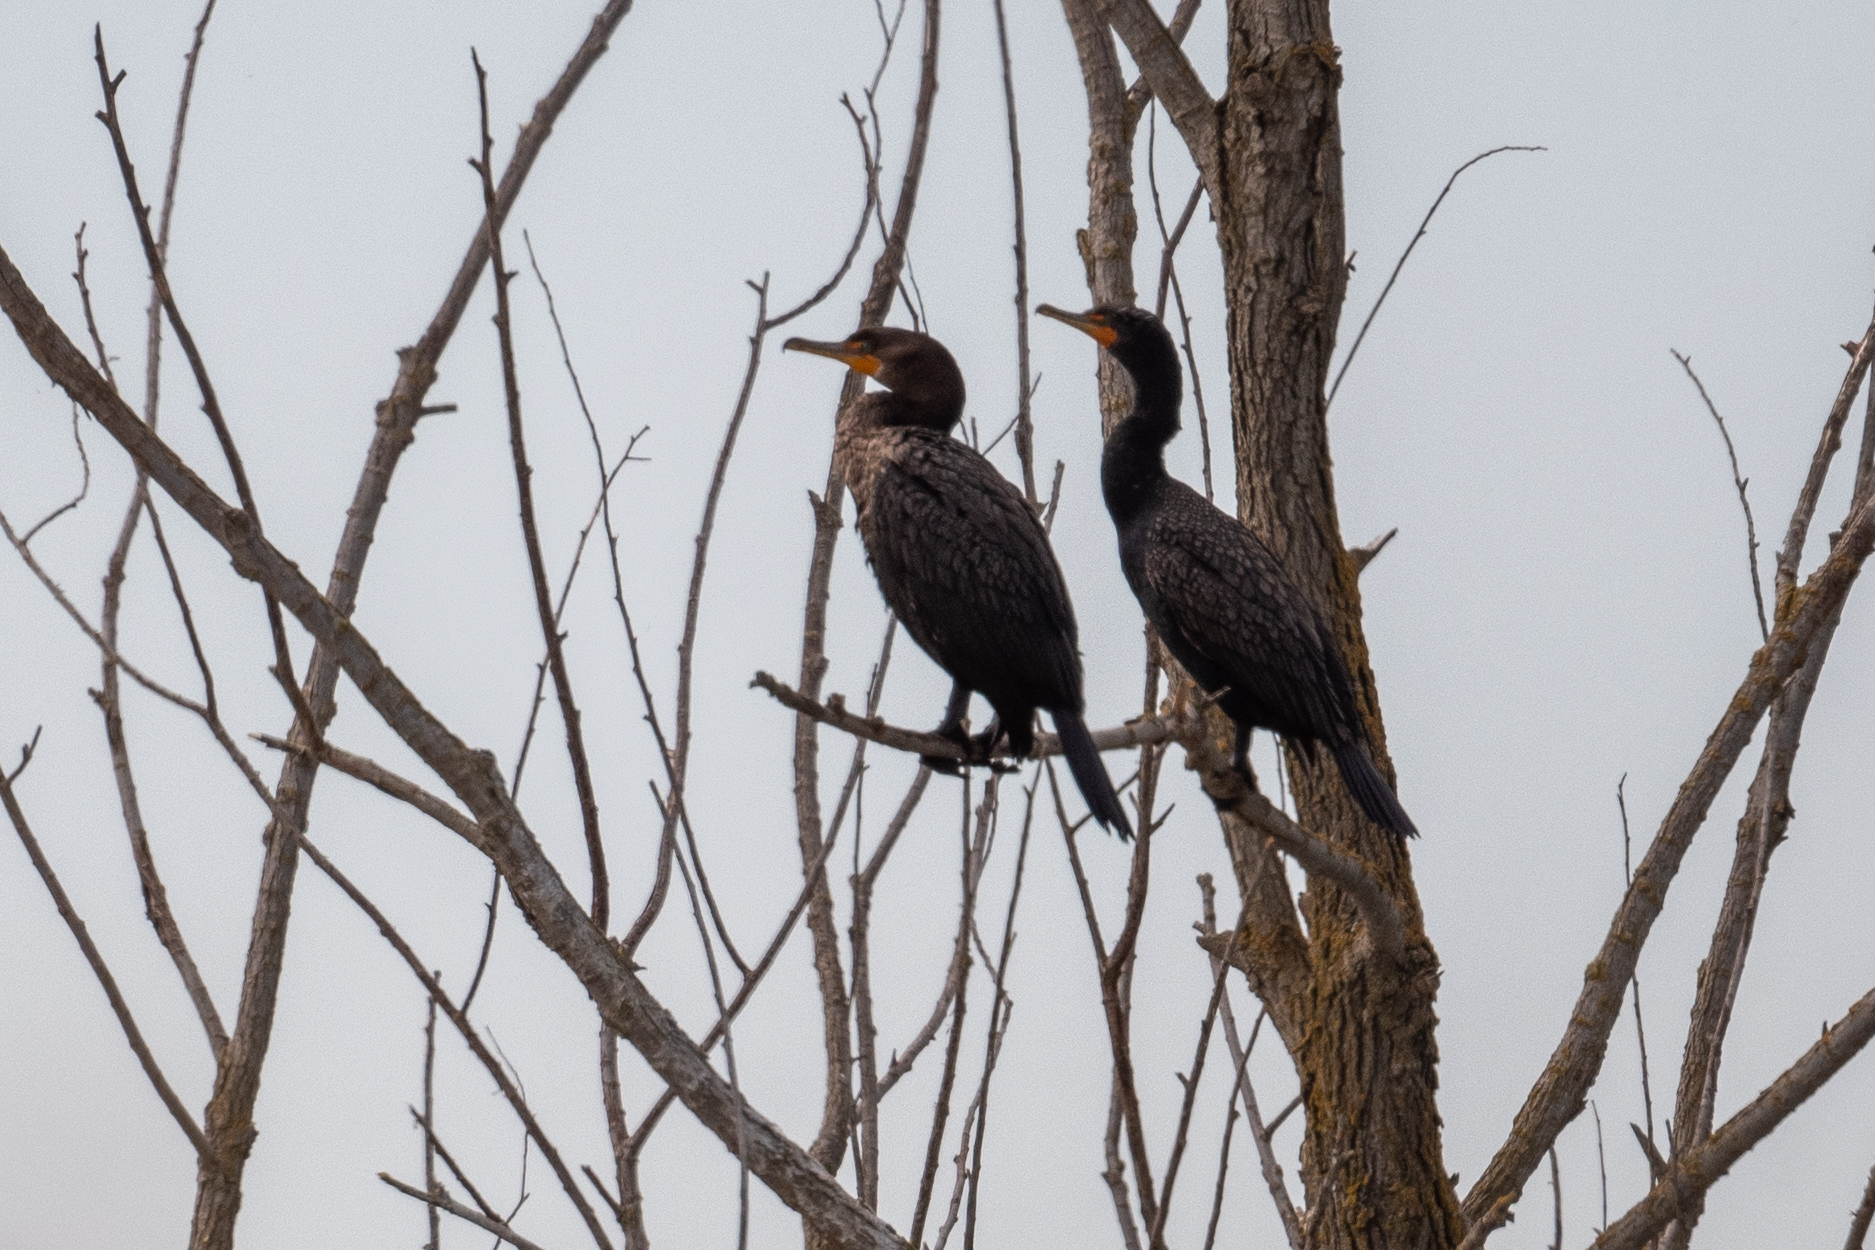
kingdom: Animalia
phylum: Chordata
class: Aves
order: Suliformes
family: Phalacrocoracidae
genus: Phalacrocorax
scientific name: Phalacrocorax auritus
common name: Double-crested cormorant
